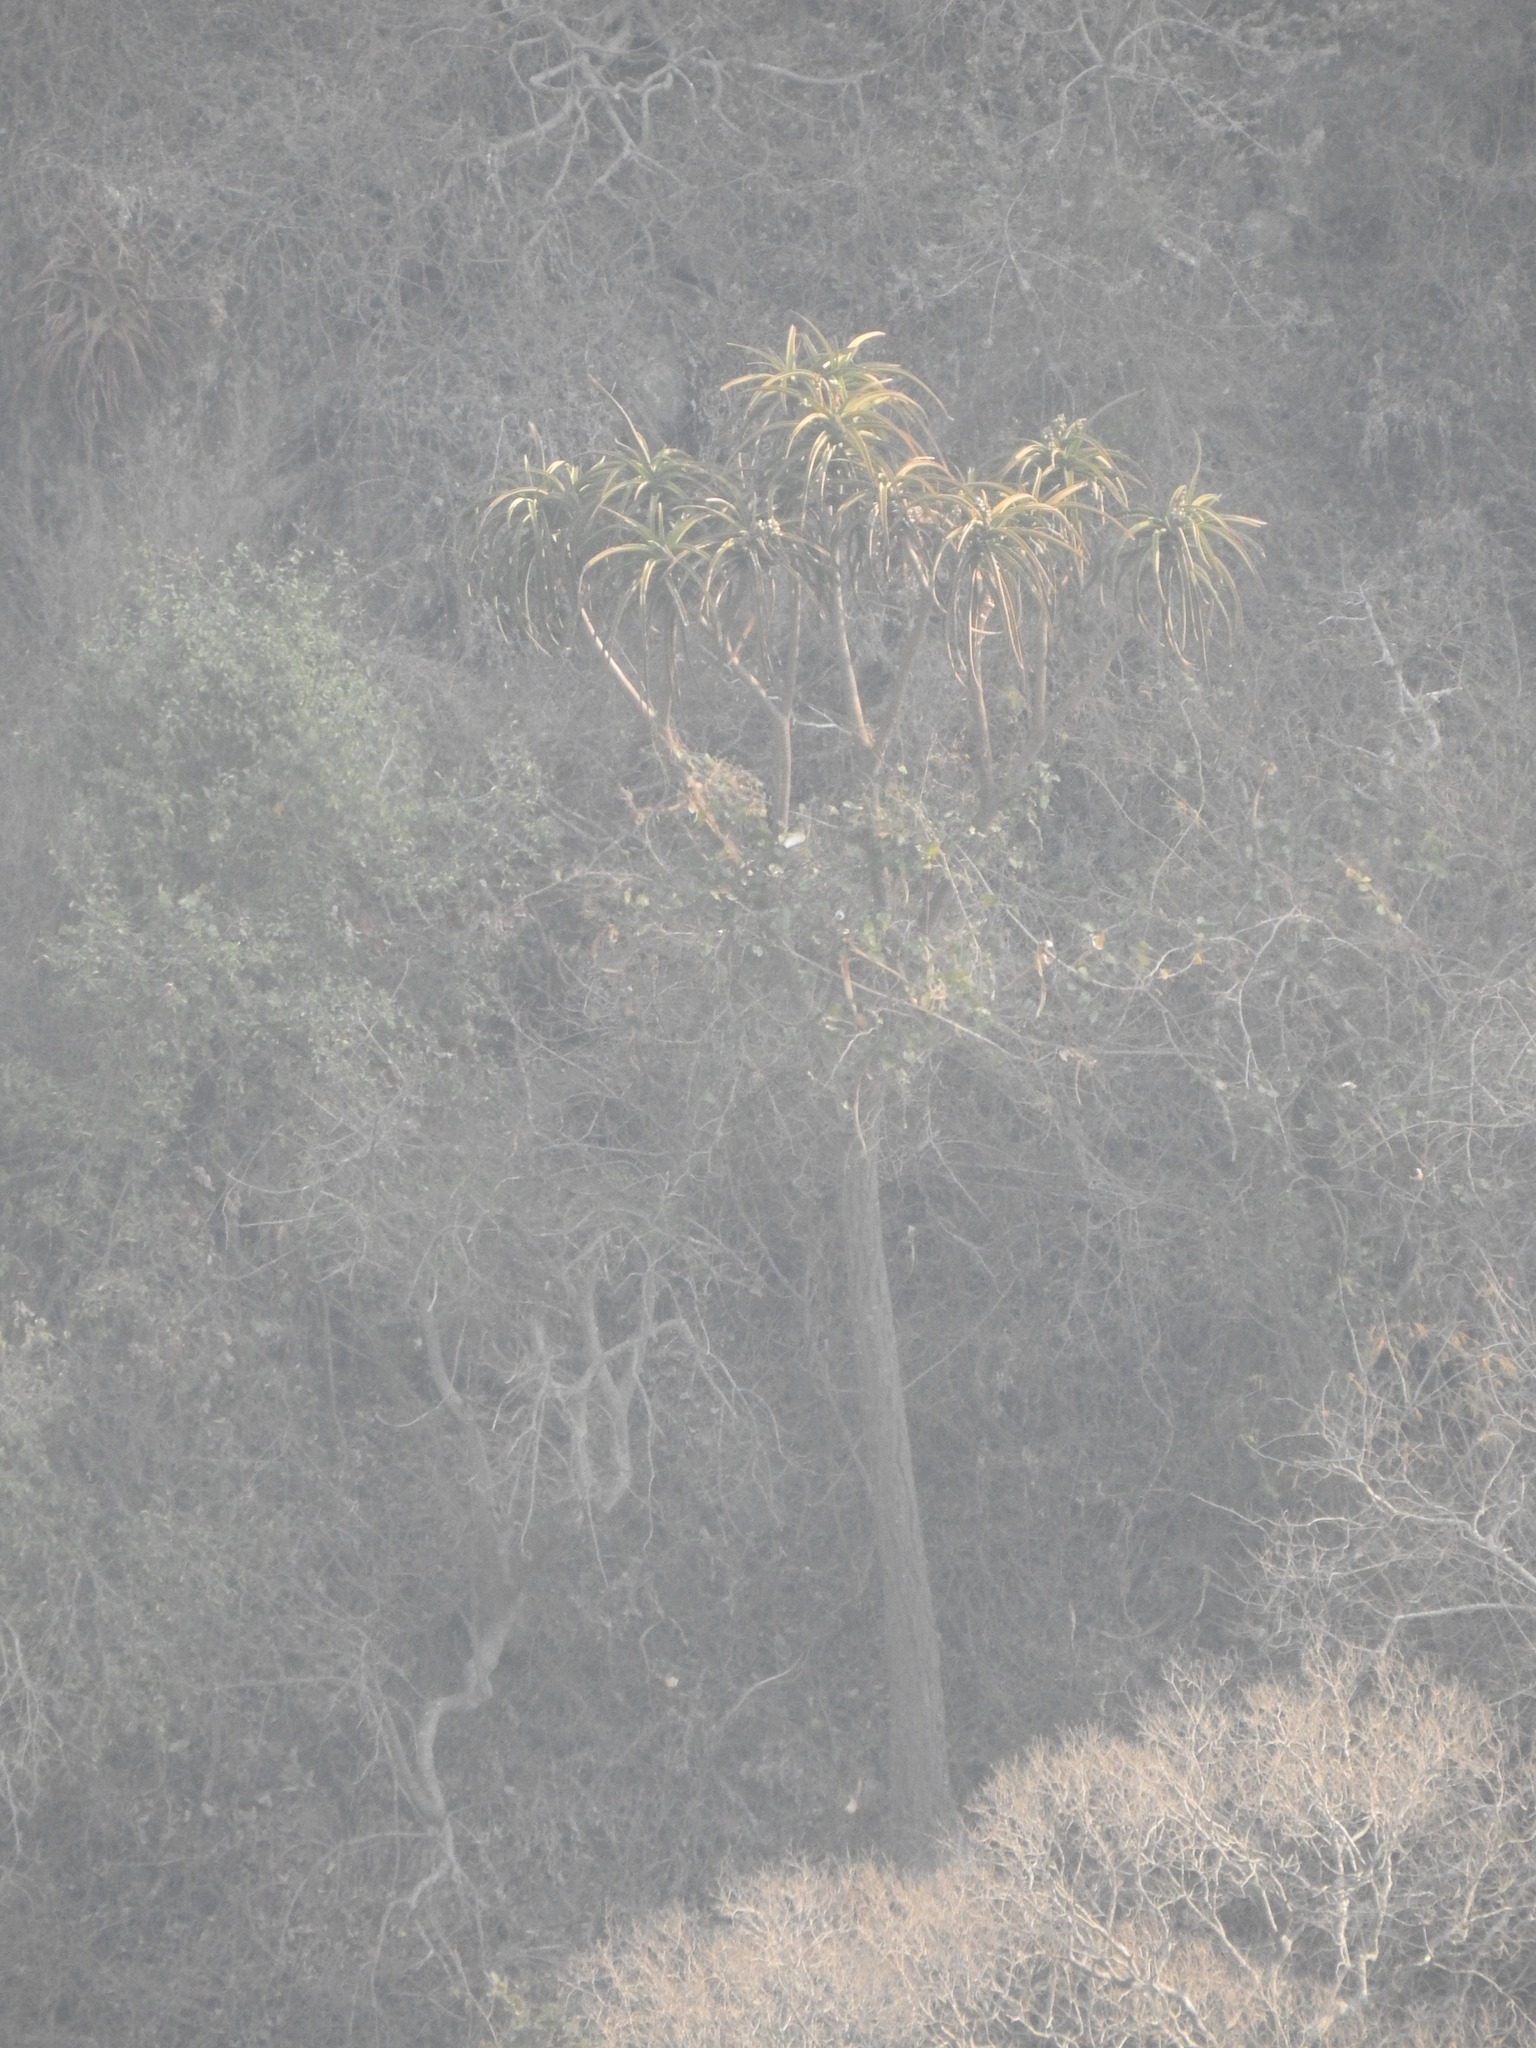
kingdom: Plantae
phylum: Tracheophyta
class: Liliopsida
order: Asparagales
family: Asphodelaceae
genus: Aloidendron
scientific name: Aloidendron barberae
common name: Tree aloe
